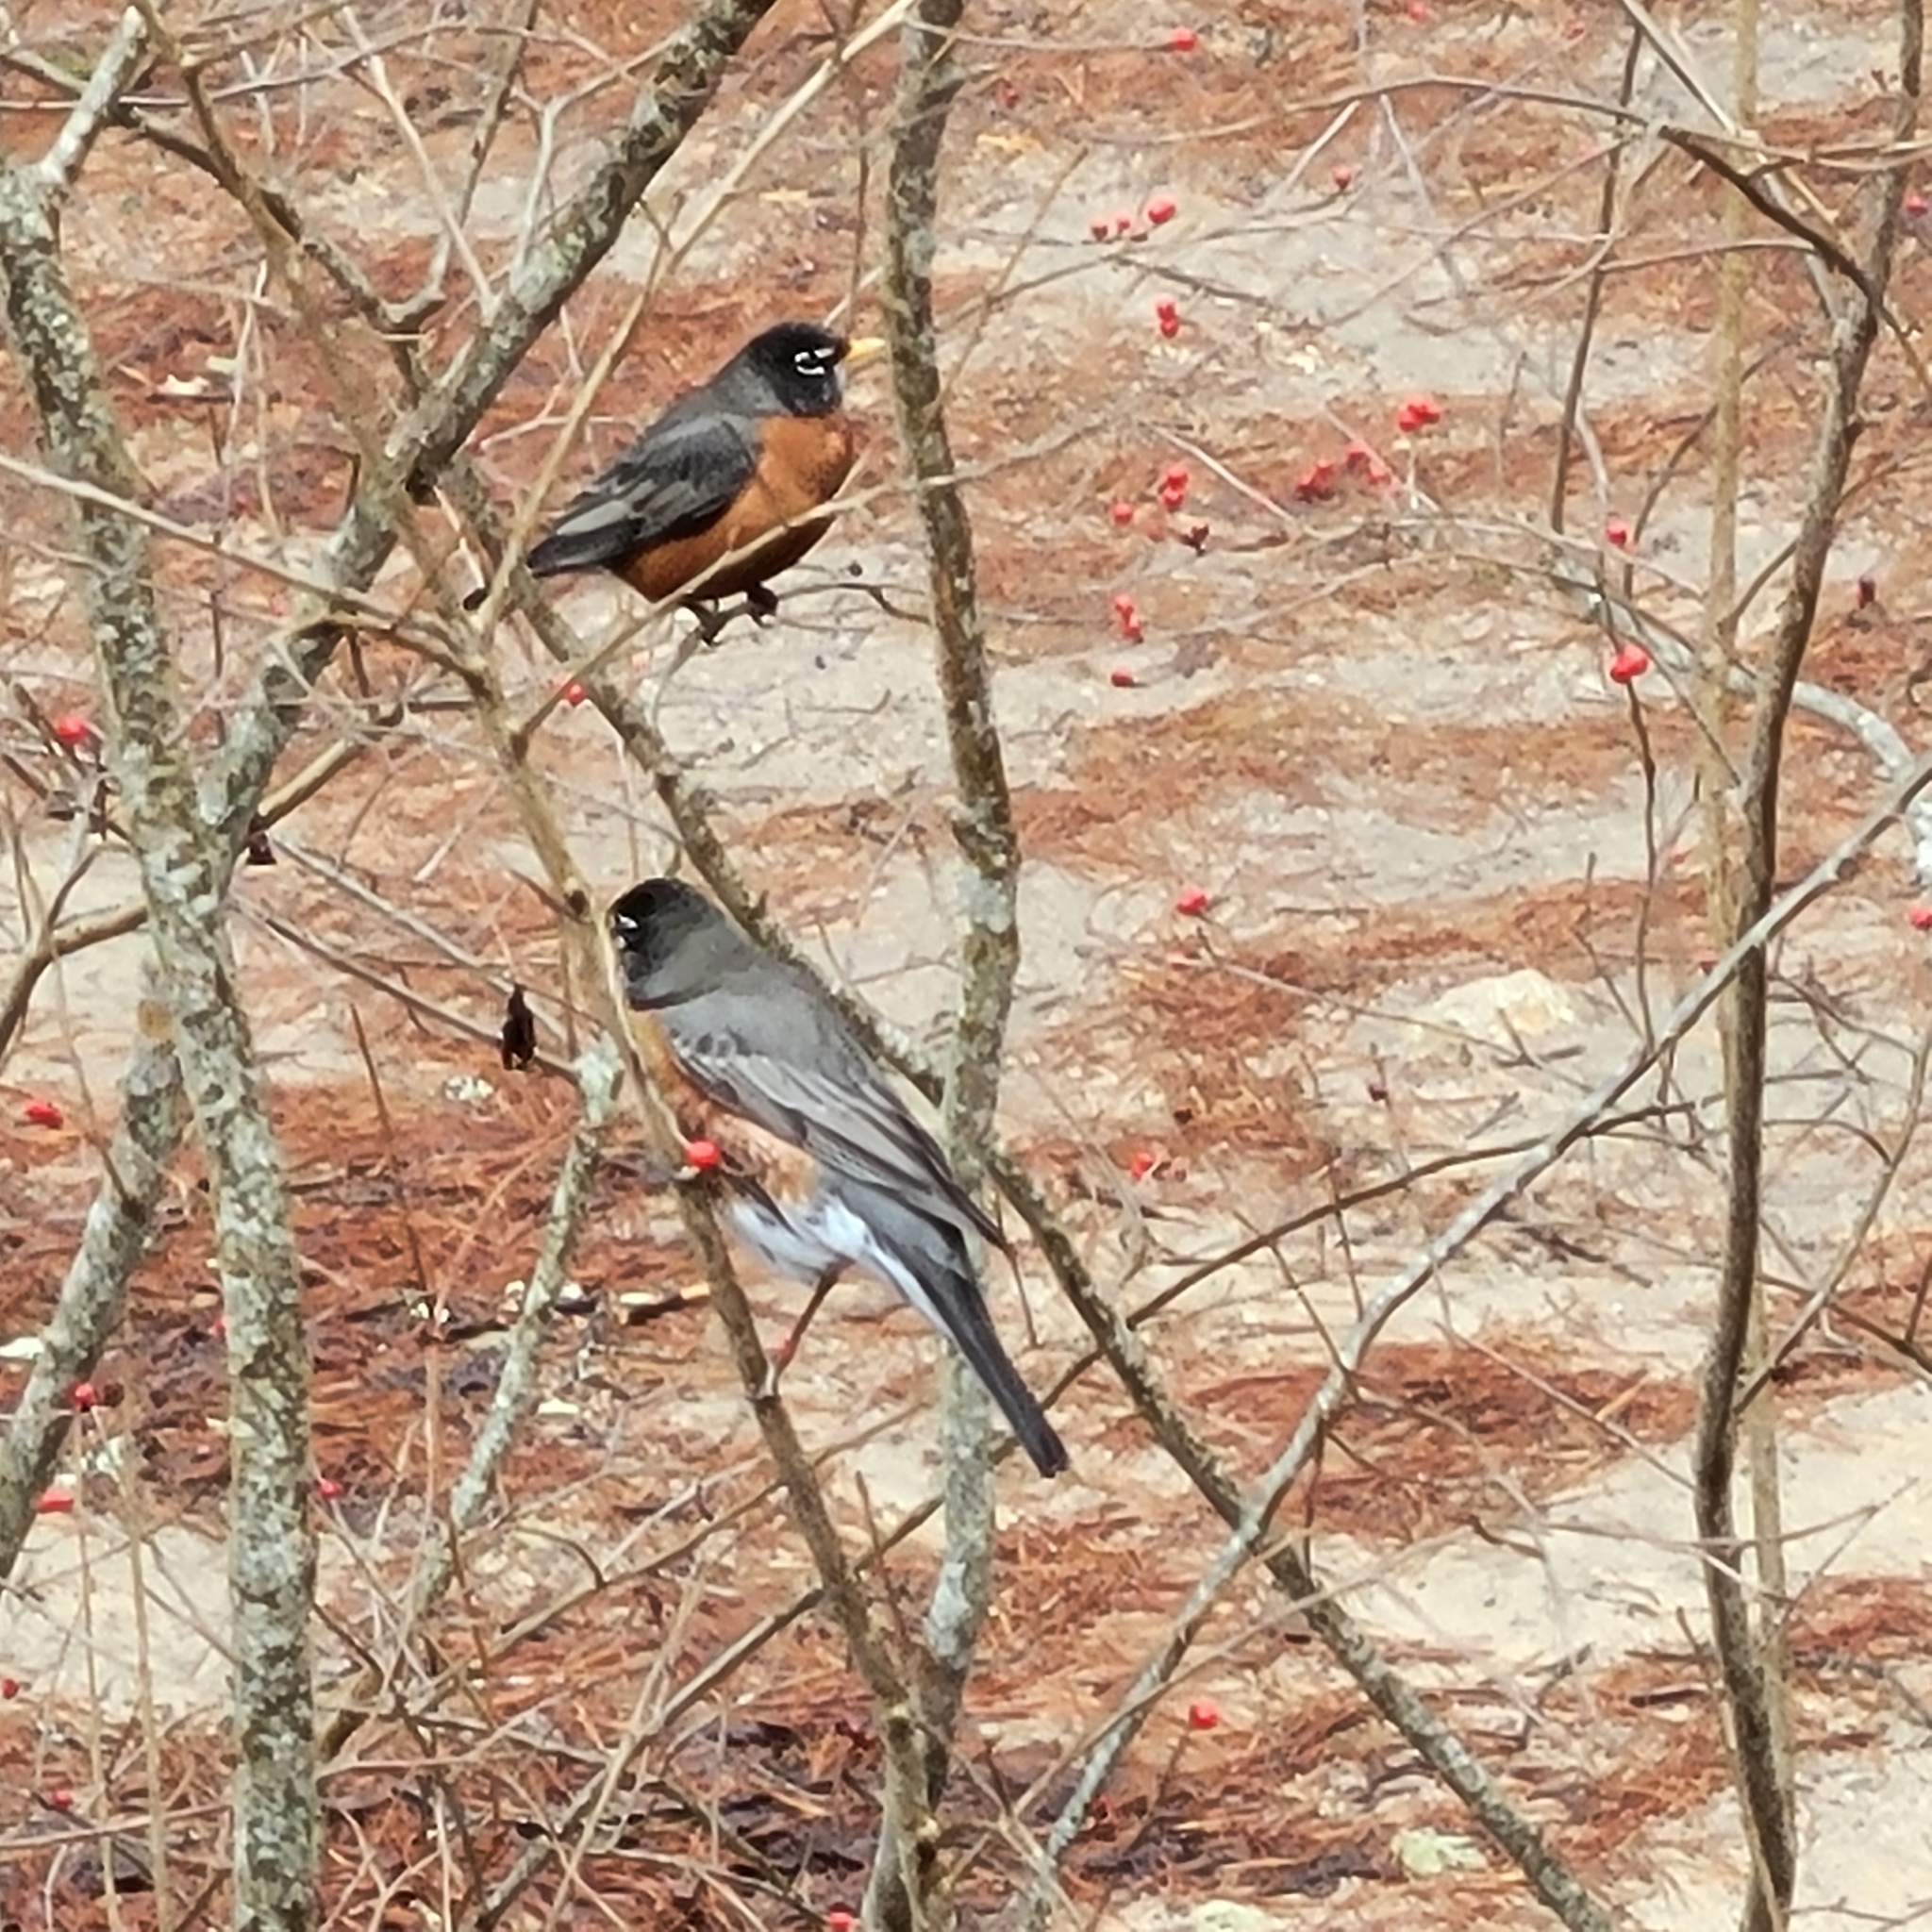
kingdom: Animalia
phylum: Chordata
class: Aves
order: Passeriformes
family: Turdidae
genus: Turdus
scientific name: Turdus migratorius
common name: American robin
